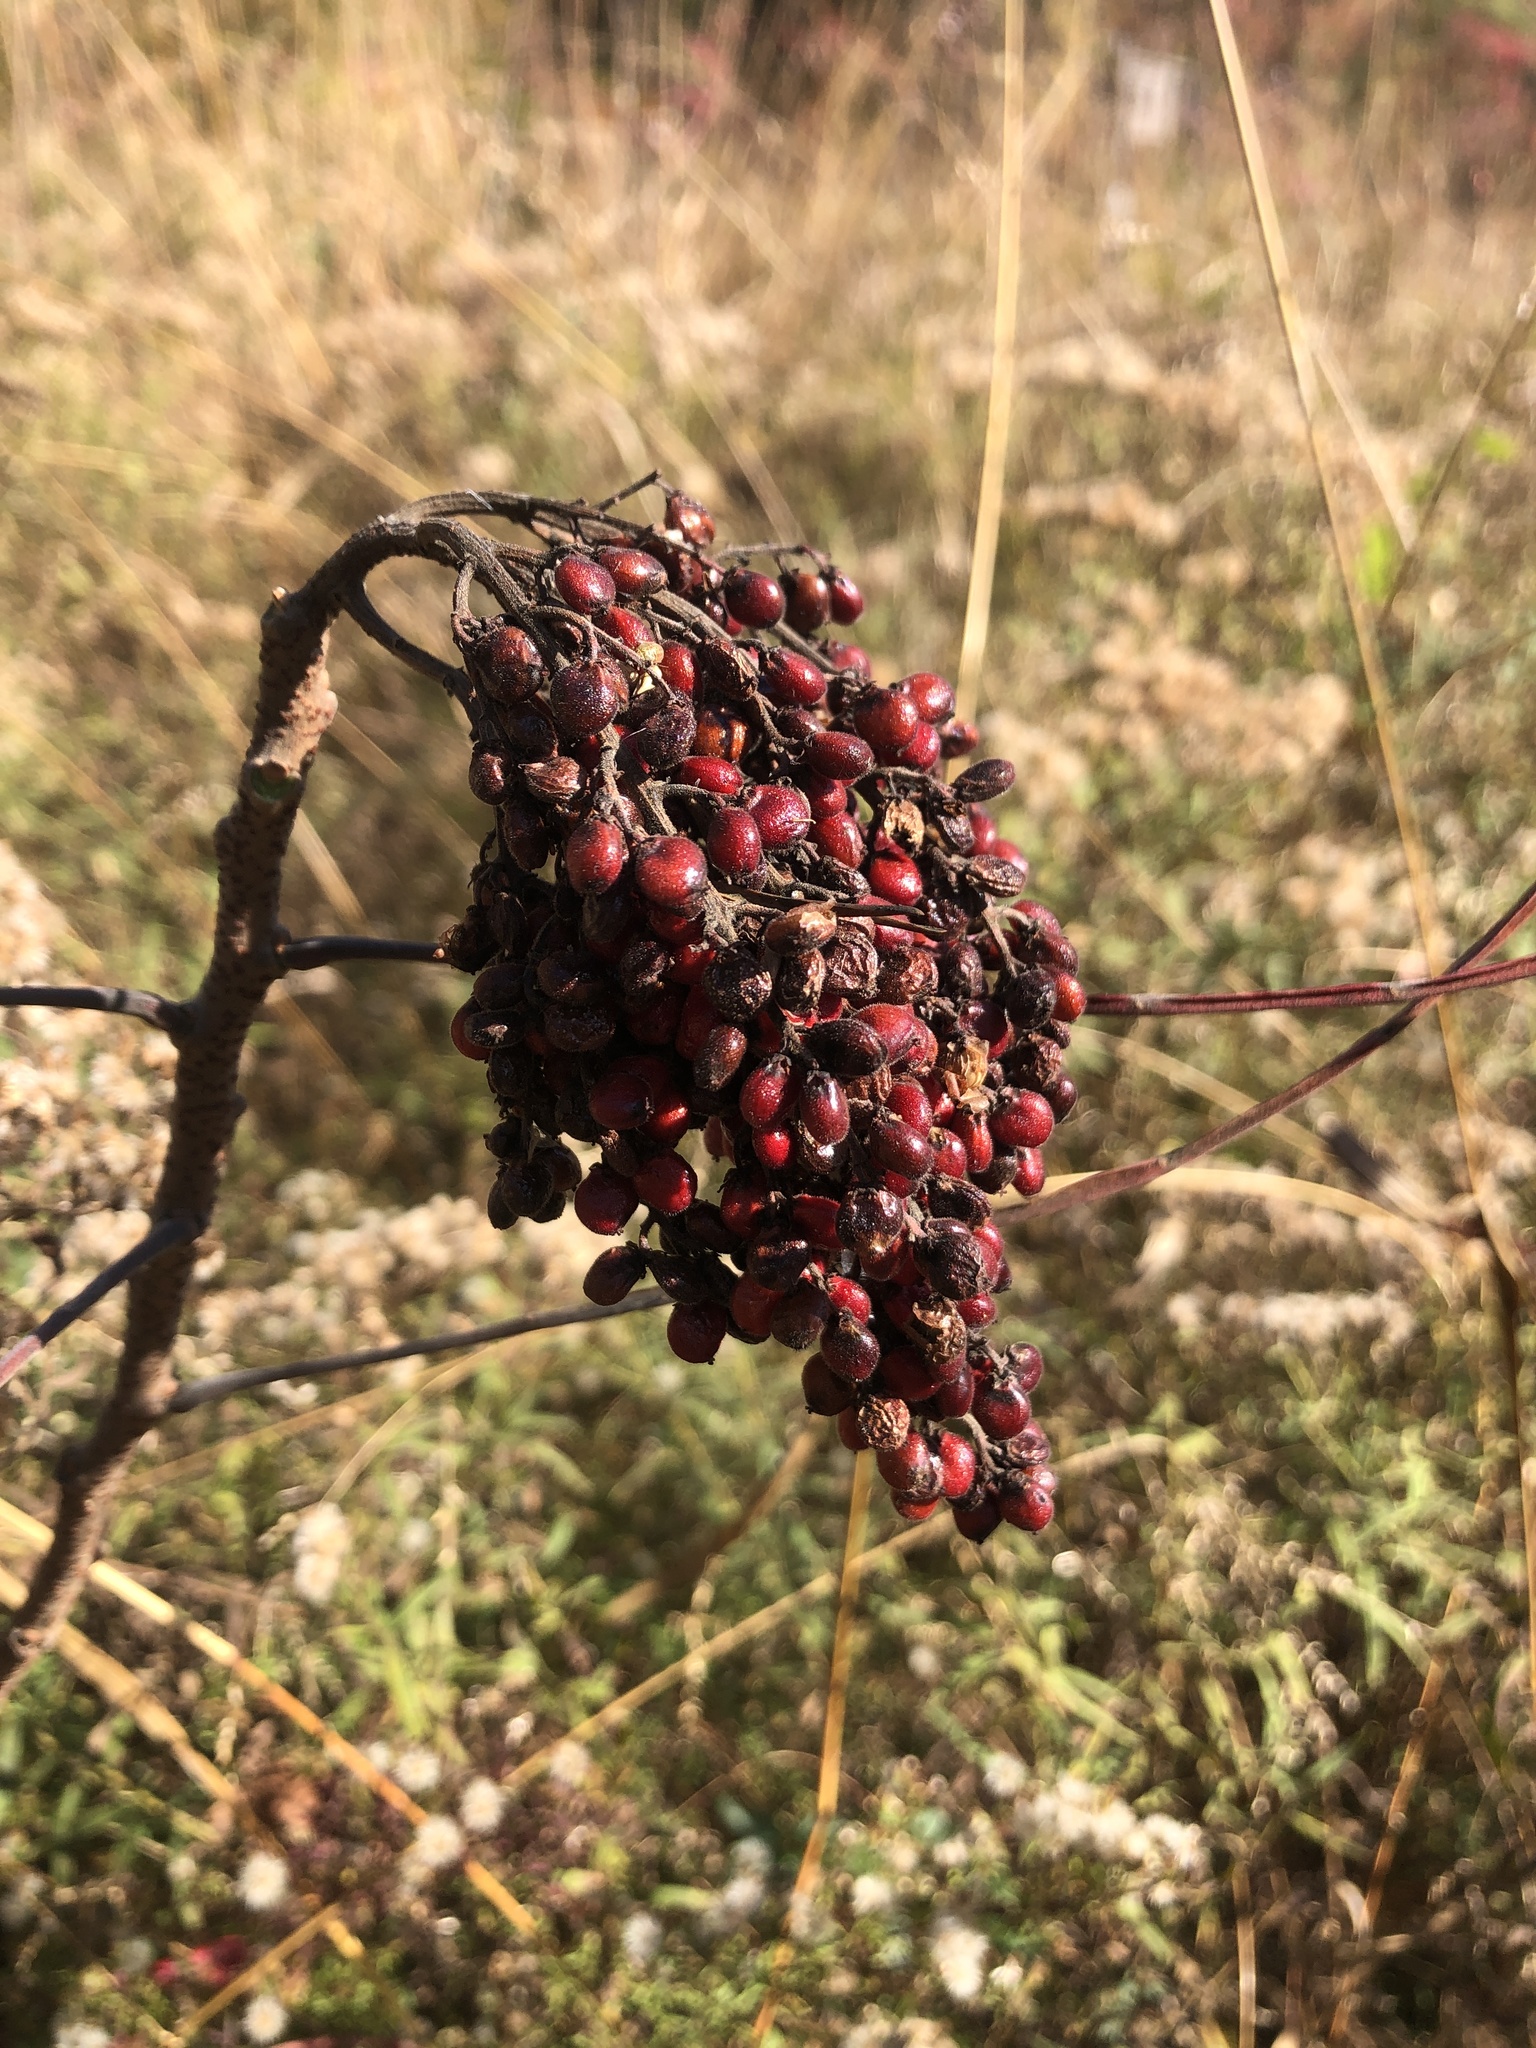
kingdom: Plantae
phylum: Tracheophyta
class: Magnoliopsida
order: Sapindales
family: Anacardiaceae
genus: Rhus
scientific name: Rhus copallina
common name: Shining sumac
